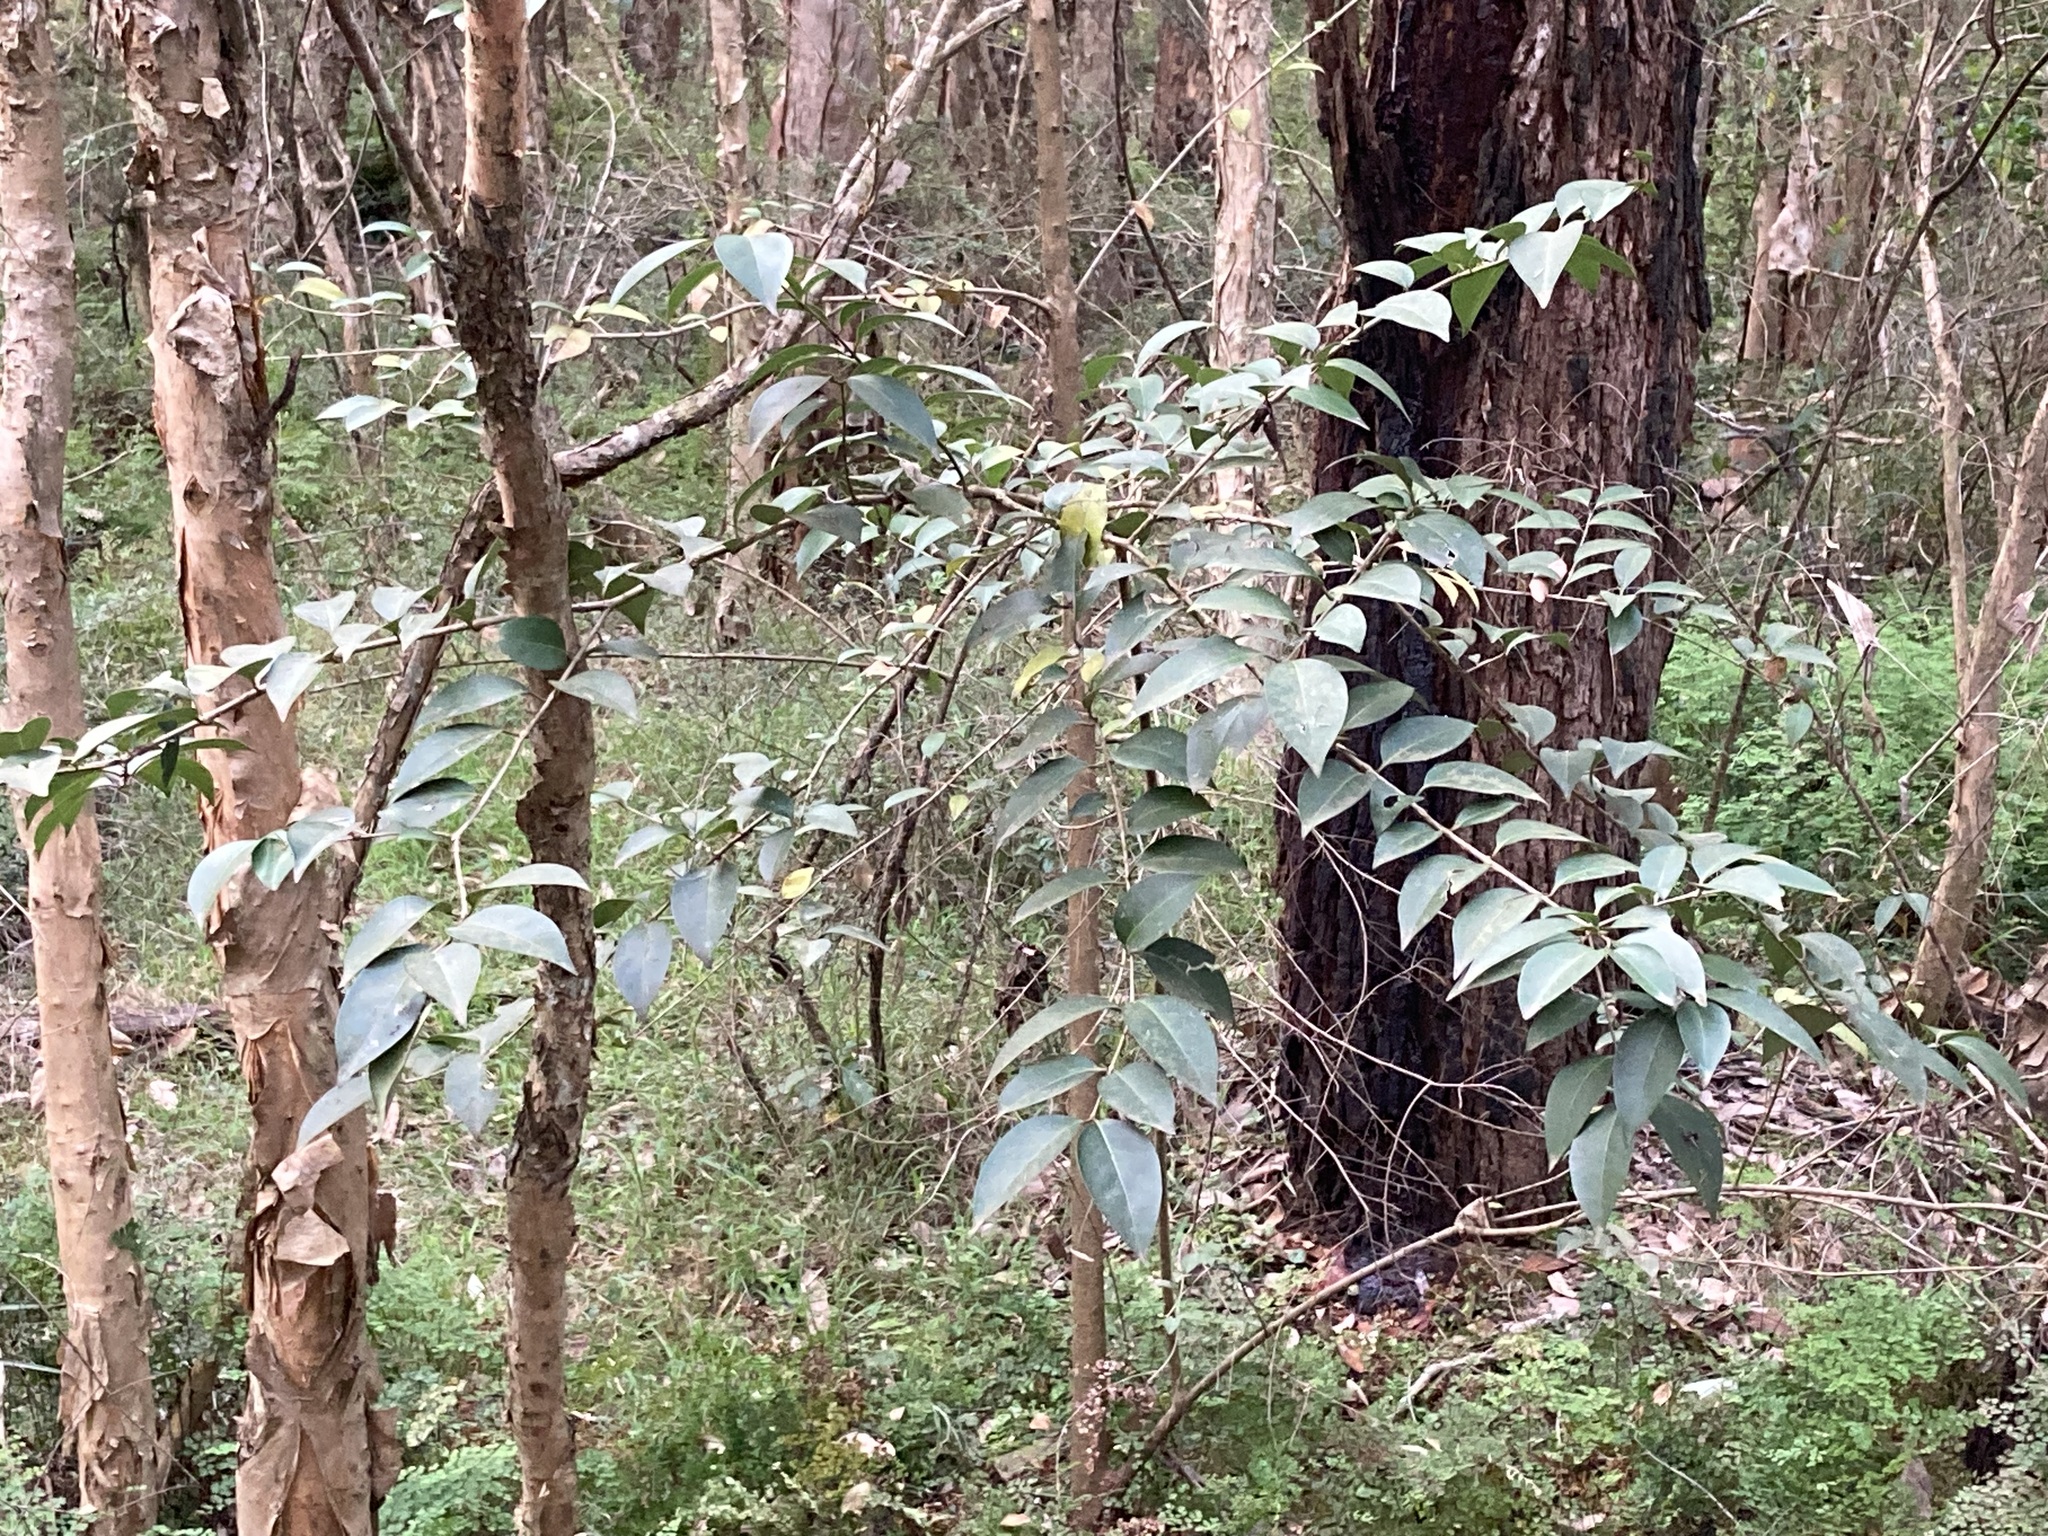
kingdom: Plantae
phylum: Tracheophyta
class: Magnoliopsida
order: Lamiales
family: Oleaceae
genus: Ligustrum
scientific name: Ligustrum lucidum
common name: Glossy privet
